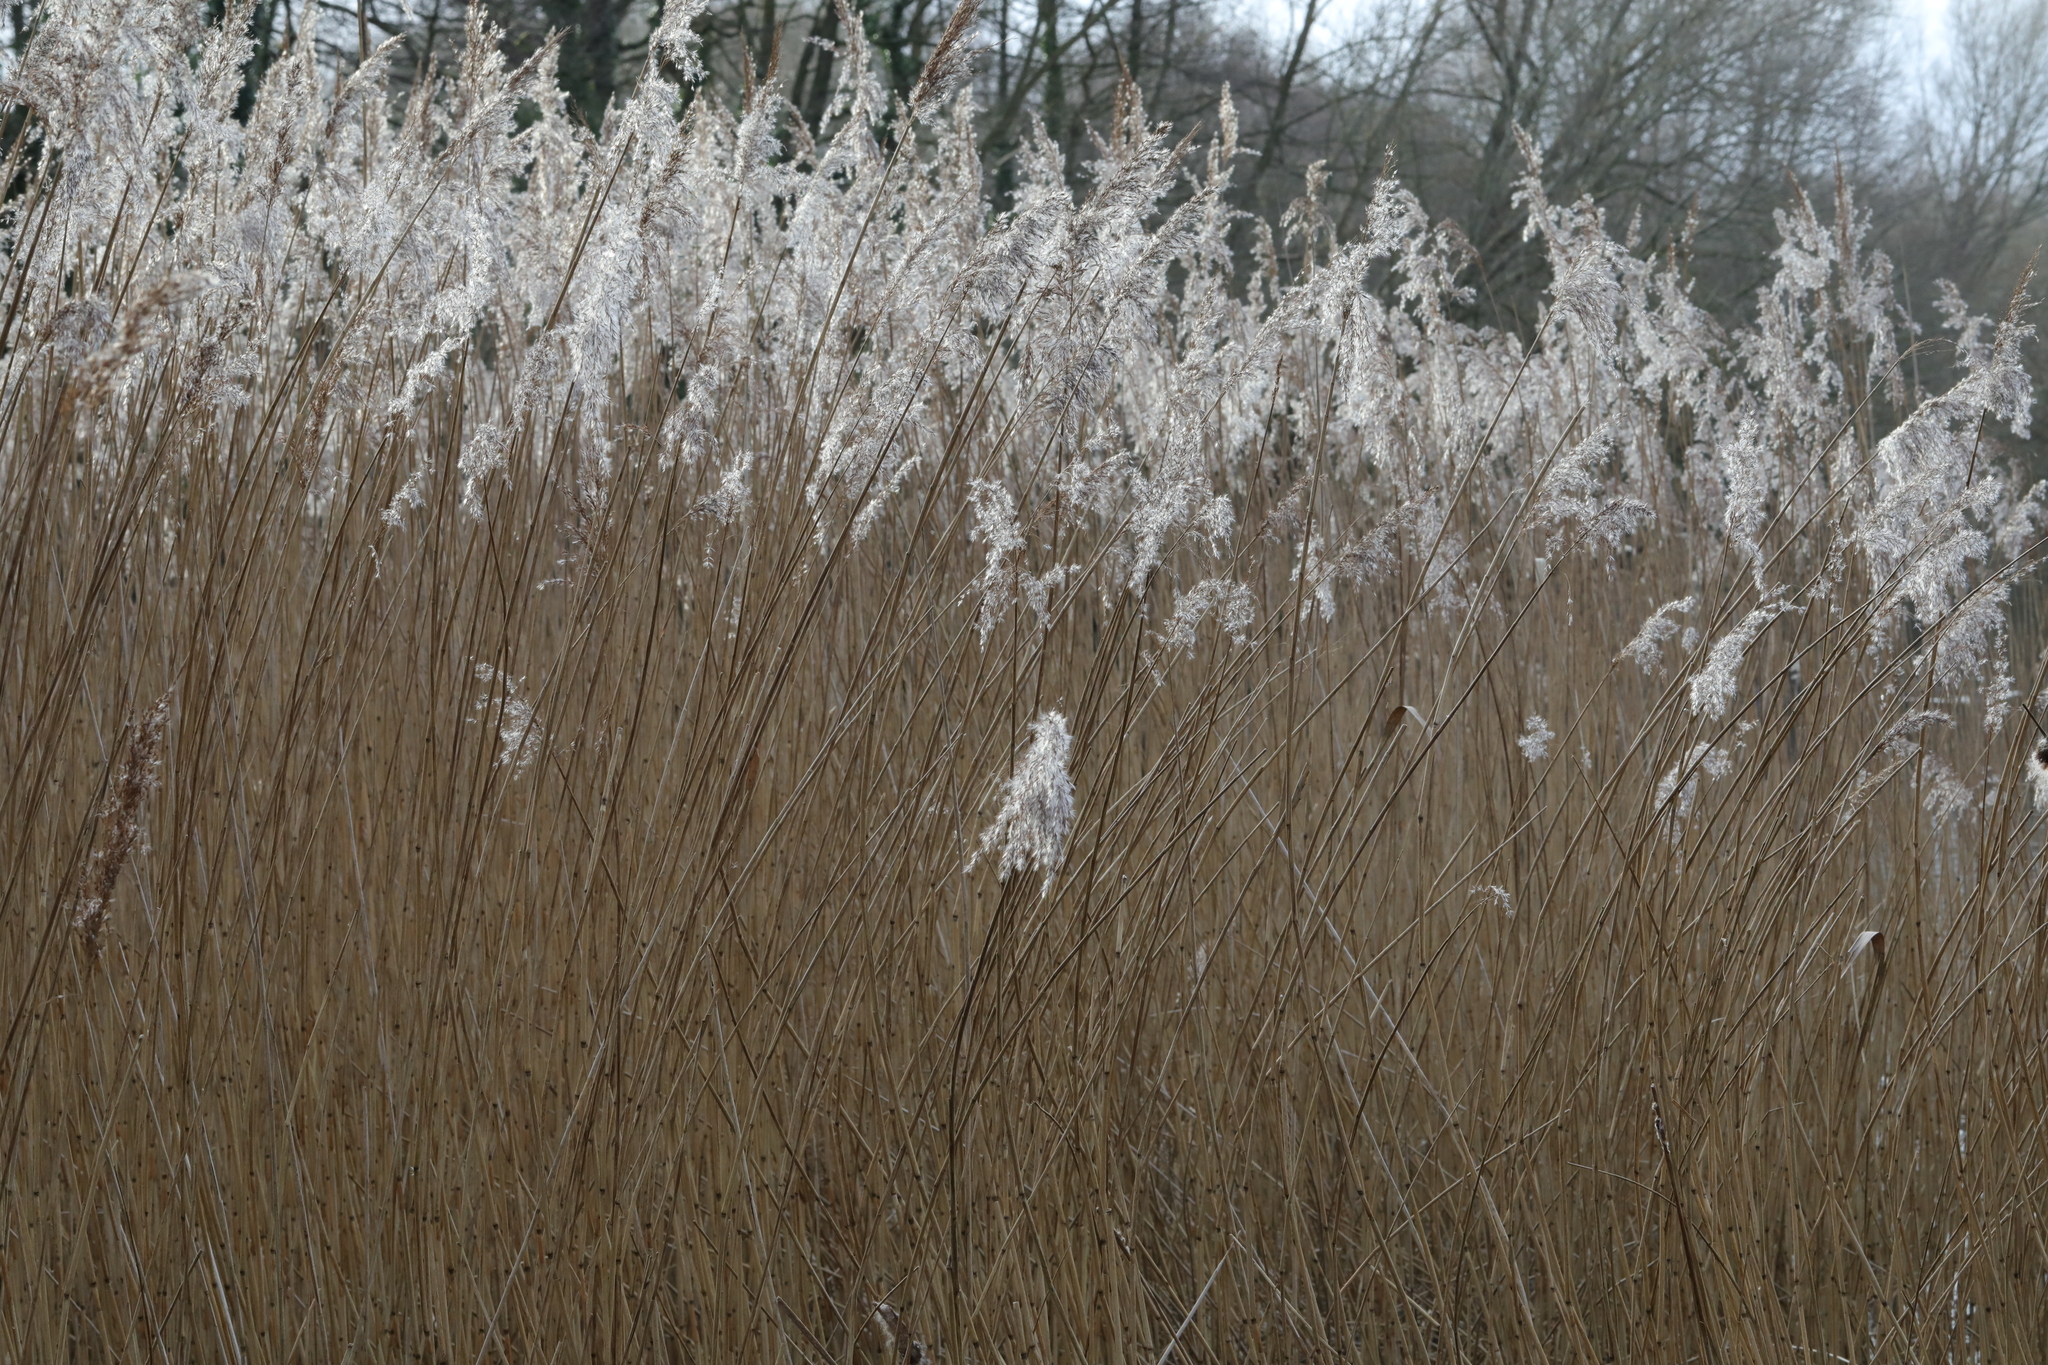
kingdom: Plantae
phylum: Tracheophyta
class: Liliopsida
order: Poales
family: Poaceae
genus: Phragmites
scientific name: Phragmites australis
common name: Common reed
